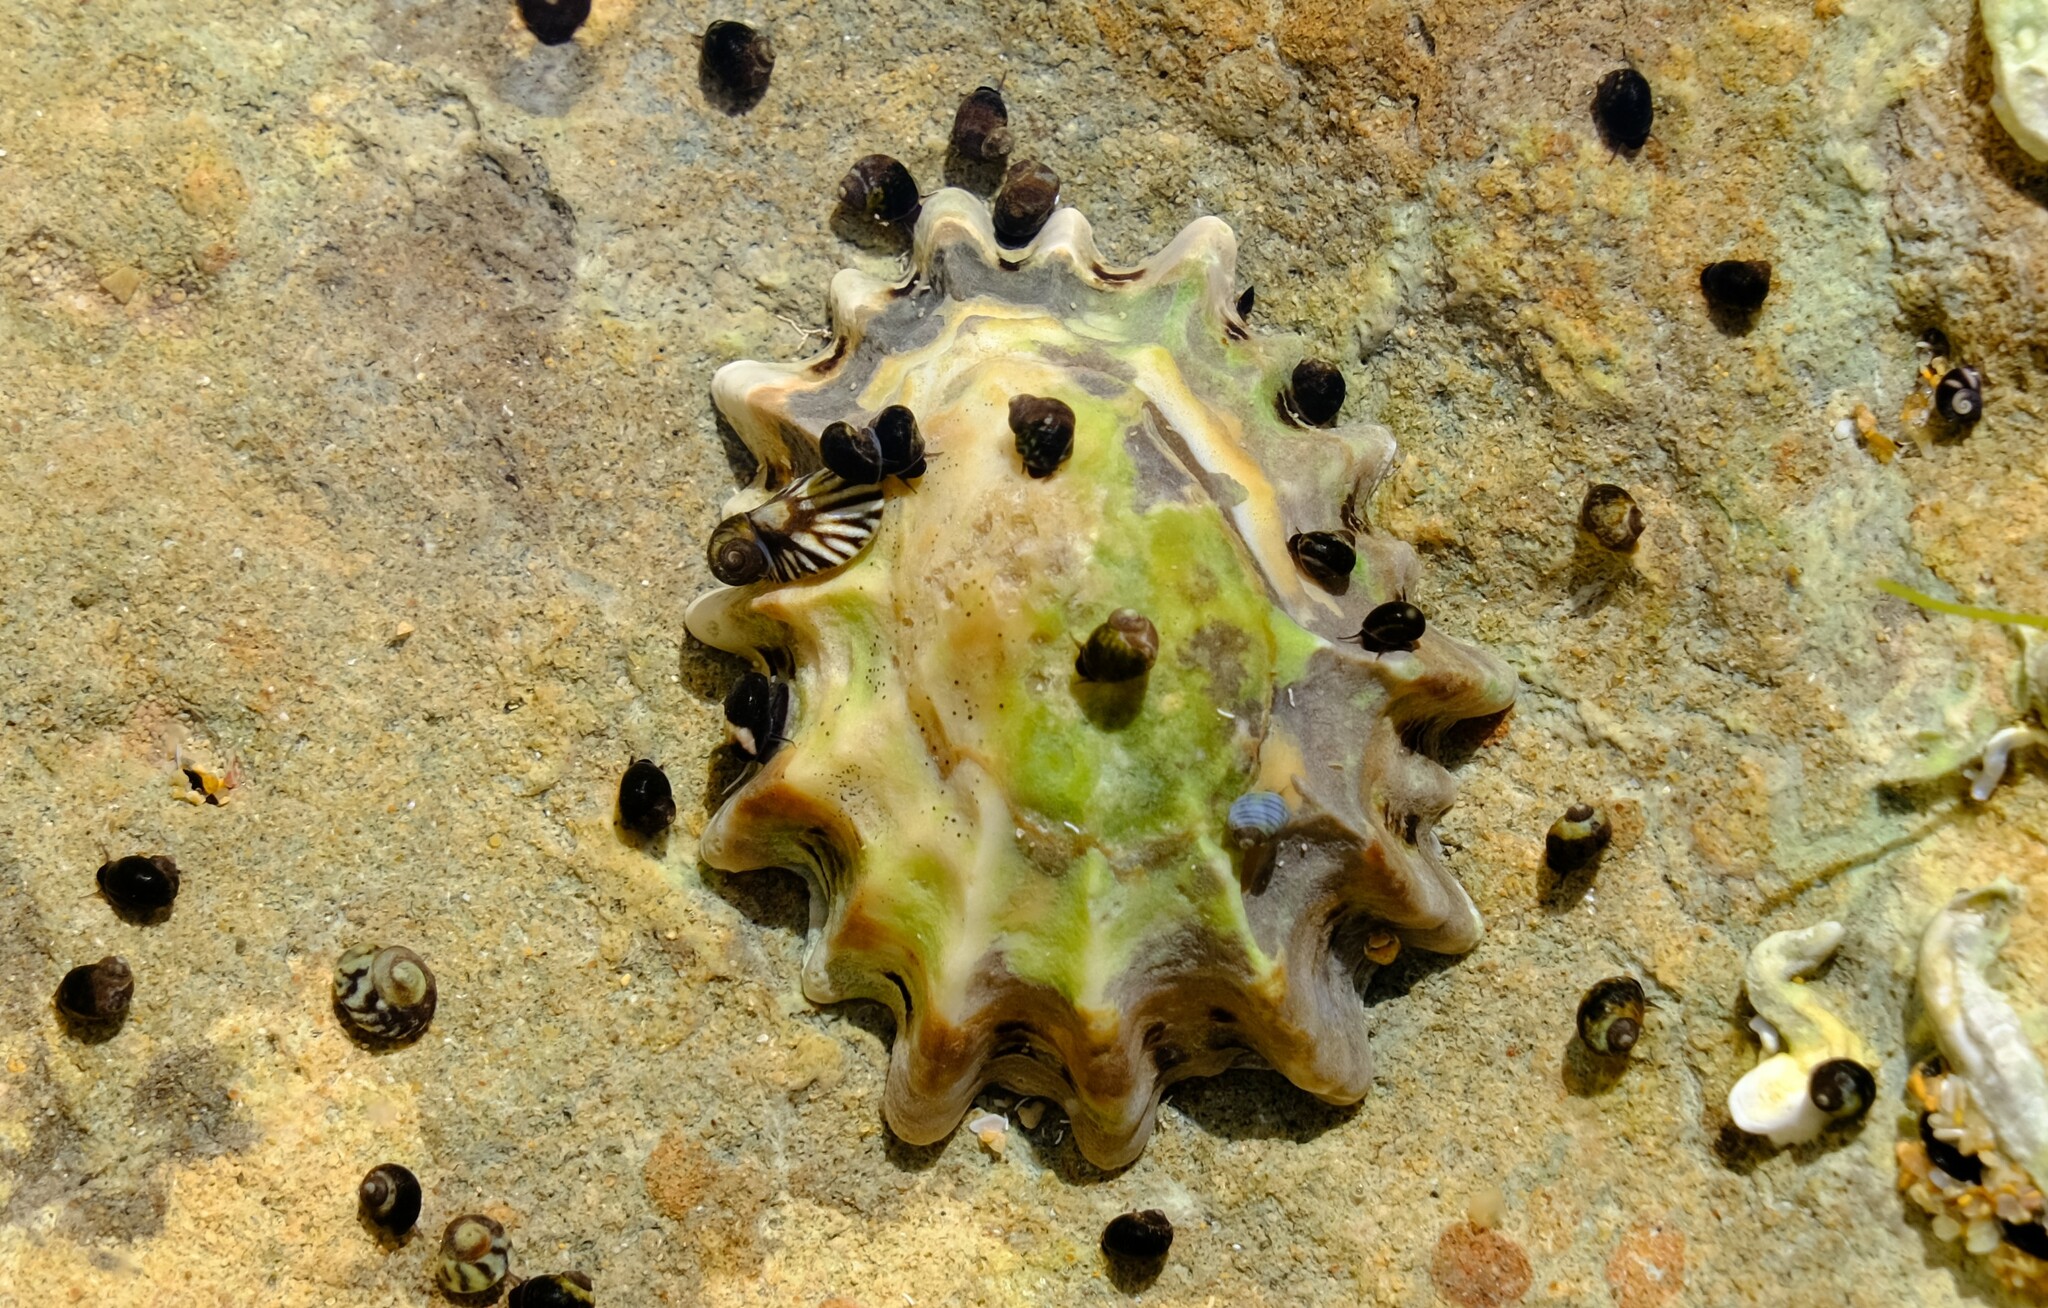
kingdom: Animalia
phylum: Mollusca
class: Gastropoda
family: Lottiidae
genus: Patelloida
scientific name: Patelloida alticostata
